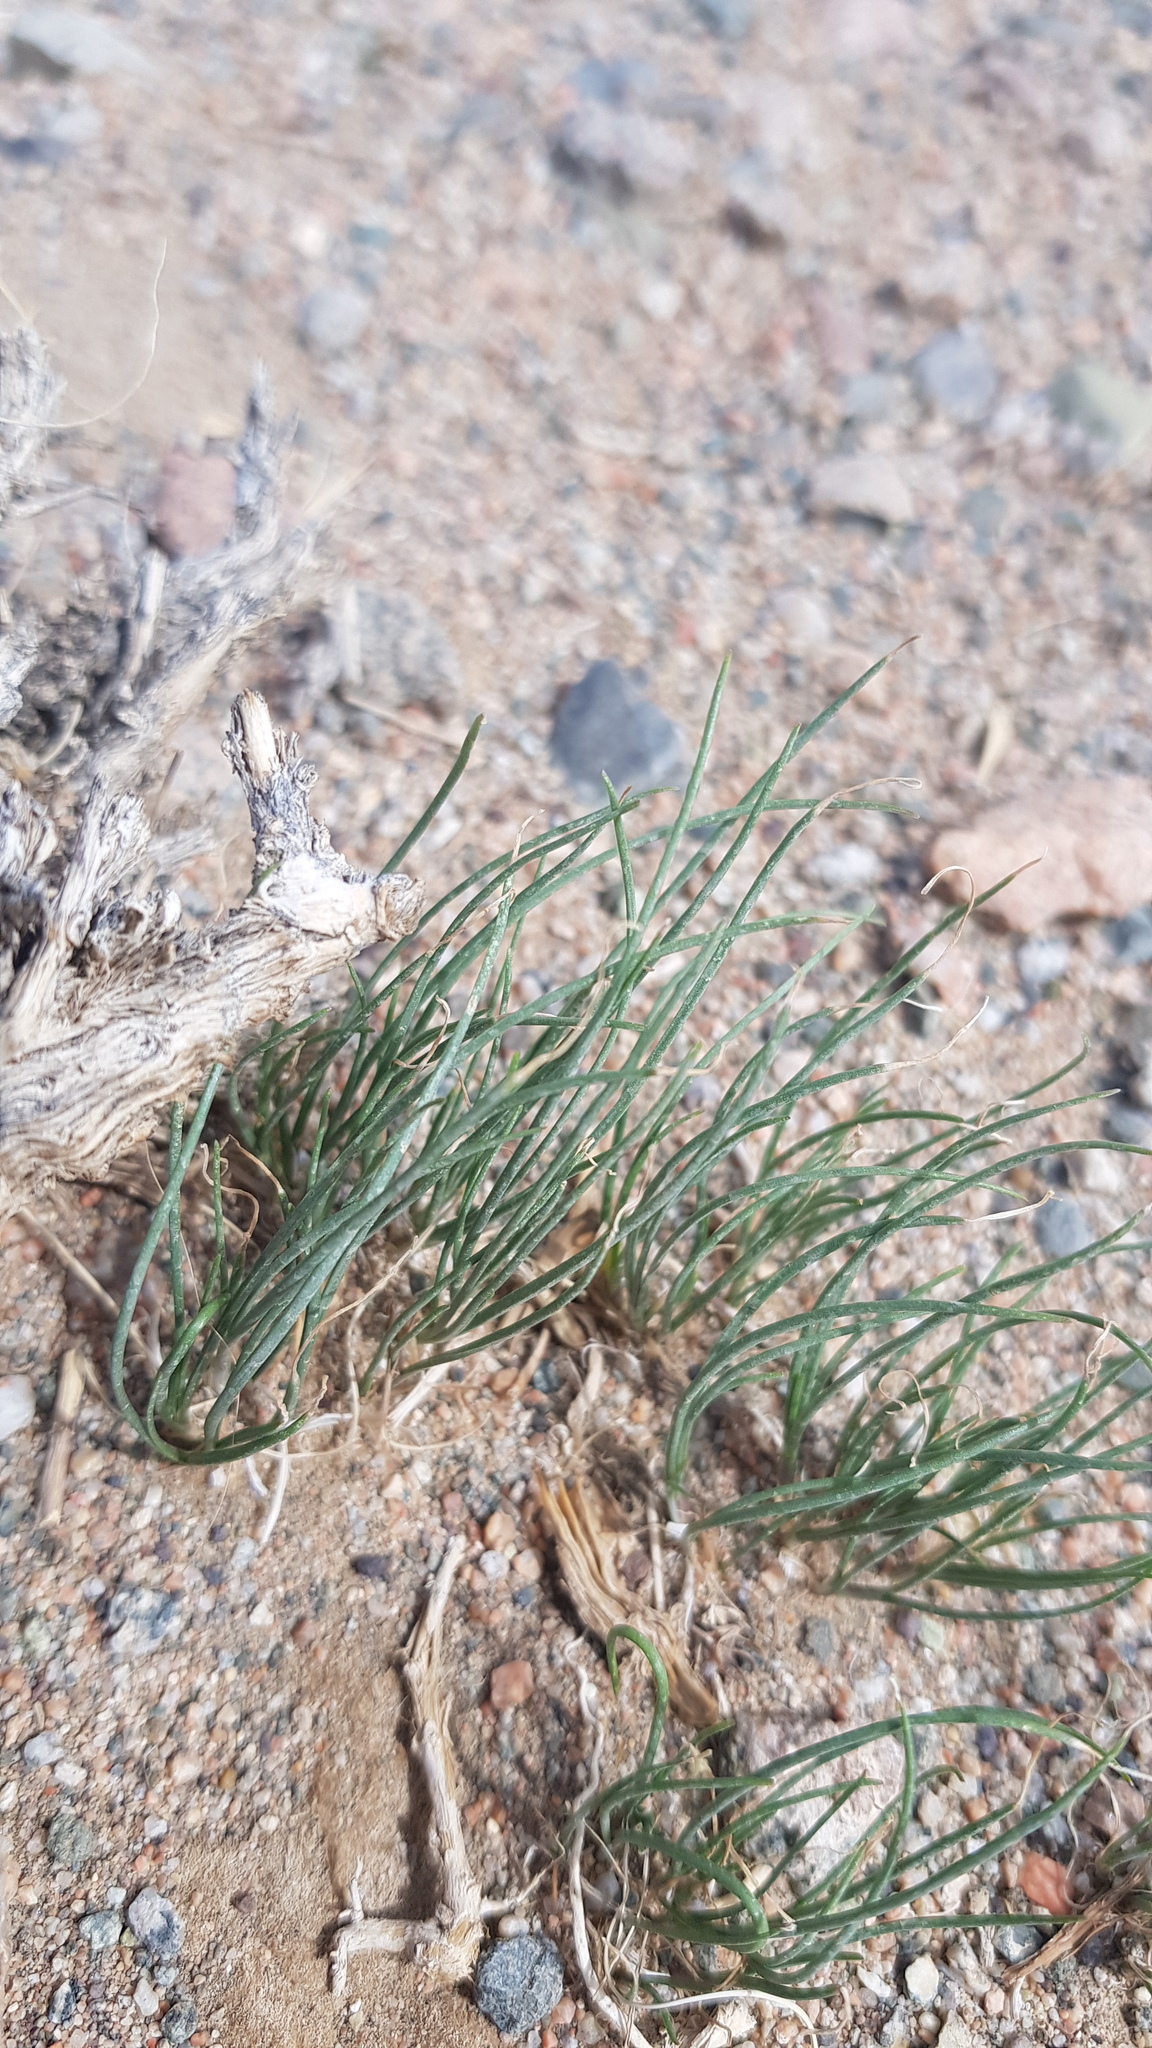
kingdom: Plantae
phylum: Tracheophyta
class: Liliopsida
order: Asparagales
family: Amaryllidaceae
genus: Allium
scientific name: Allium polyrhizum
